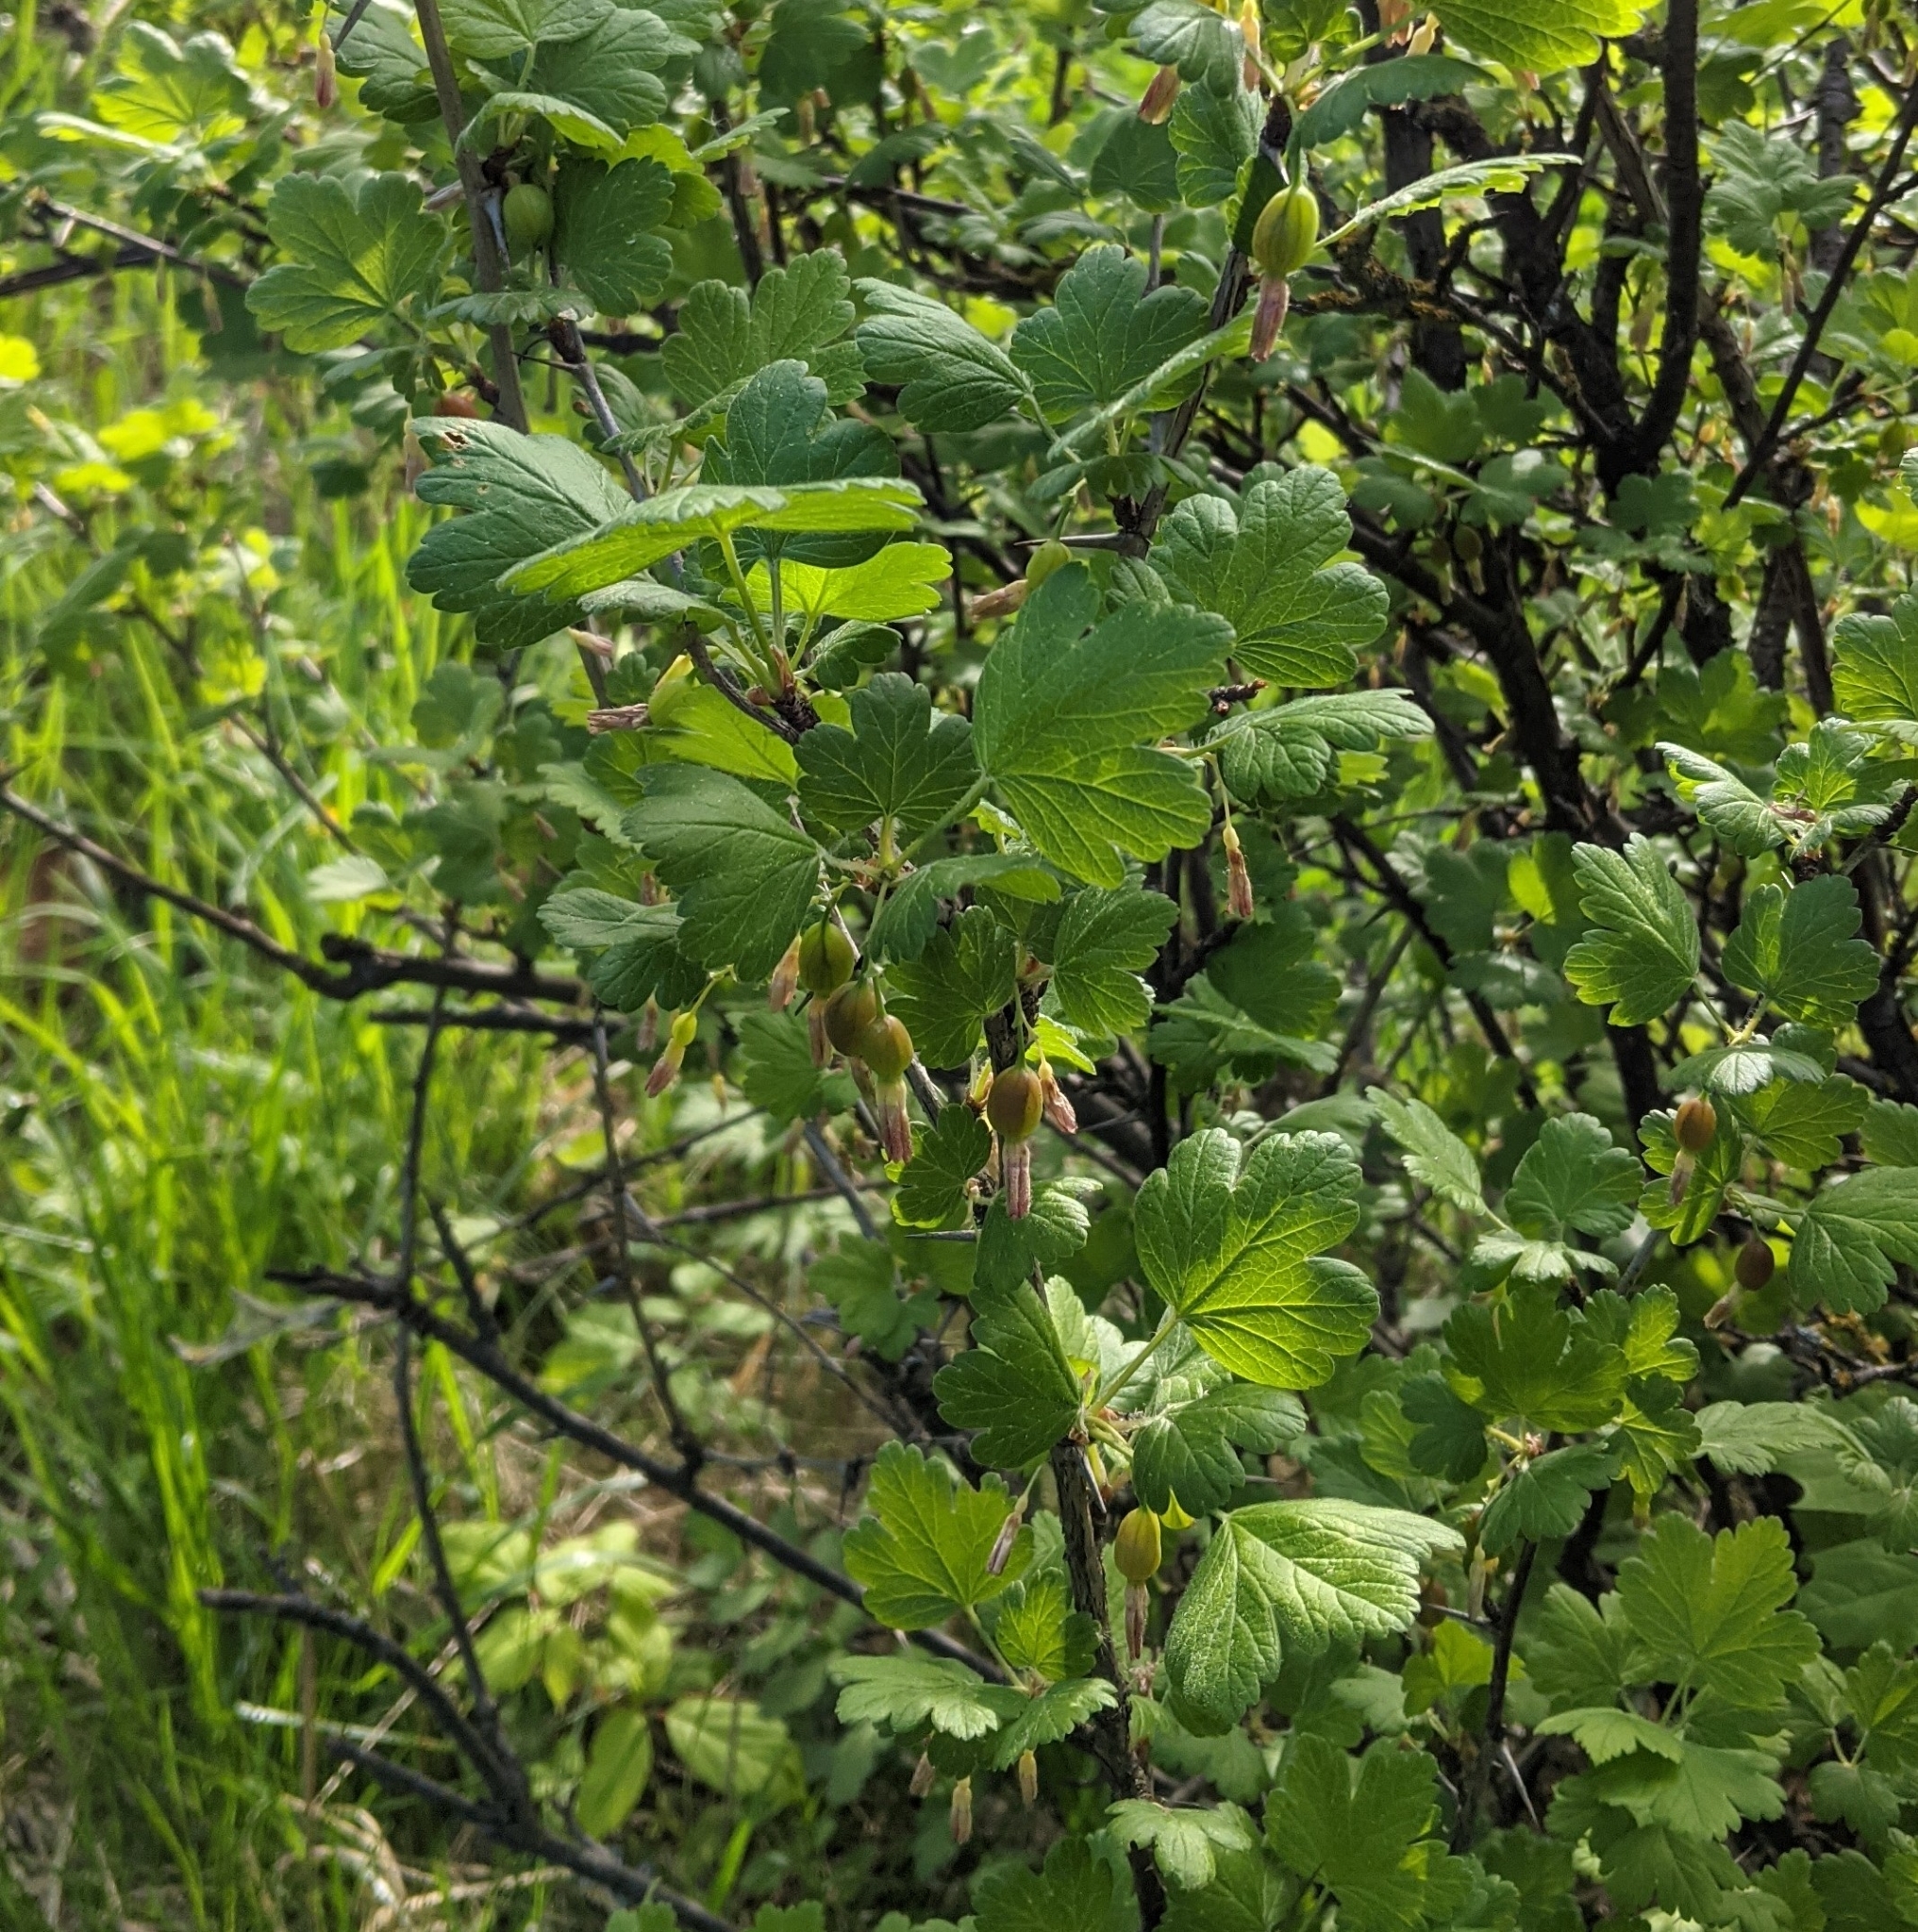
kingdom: Plantae
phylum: Tracheophyta
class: Magnoliopsida
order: Saxifragales
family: Grossulariaceae
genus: Ribes
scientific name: Ribes uva-crispa
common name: Gooseberry
